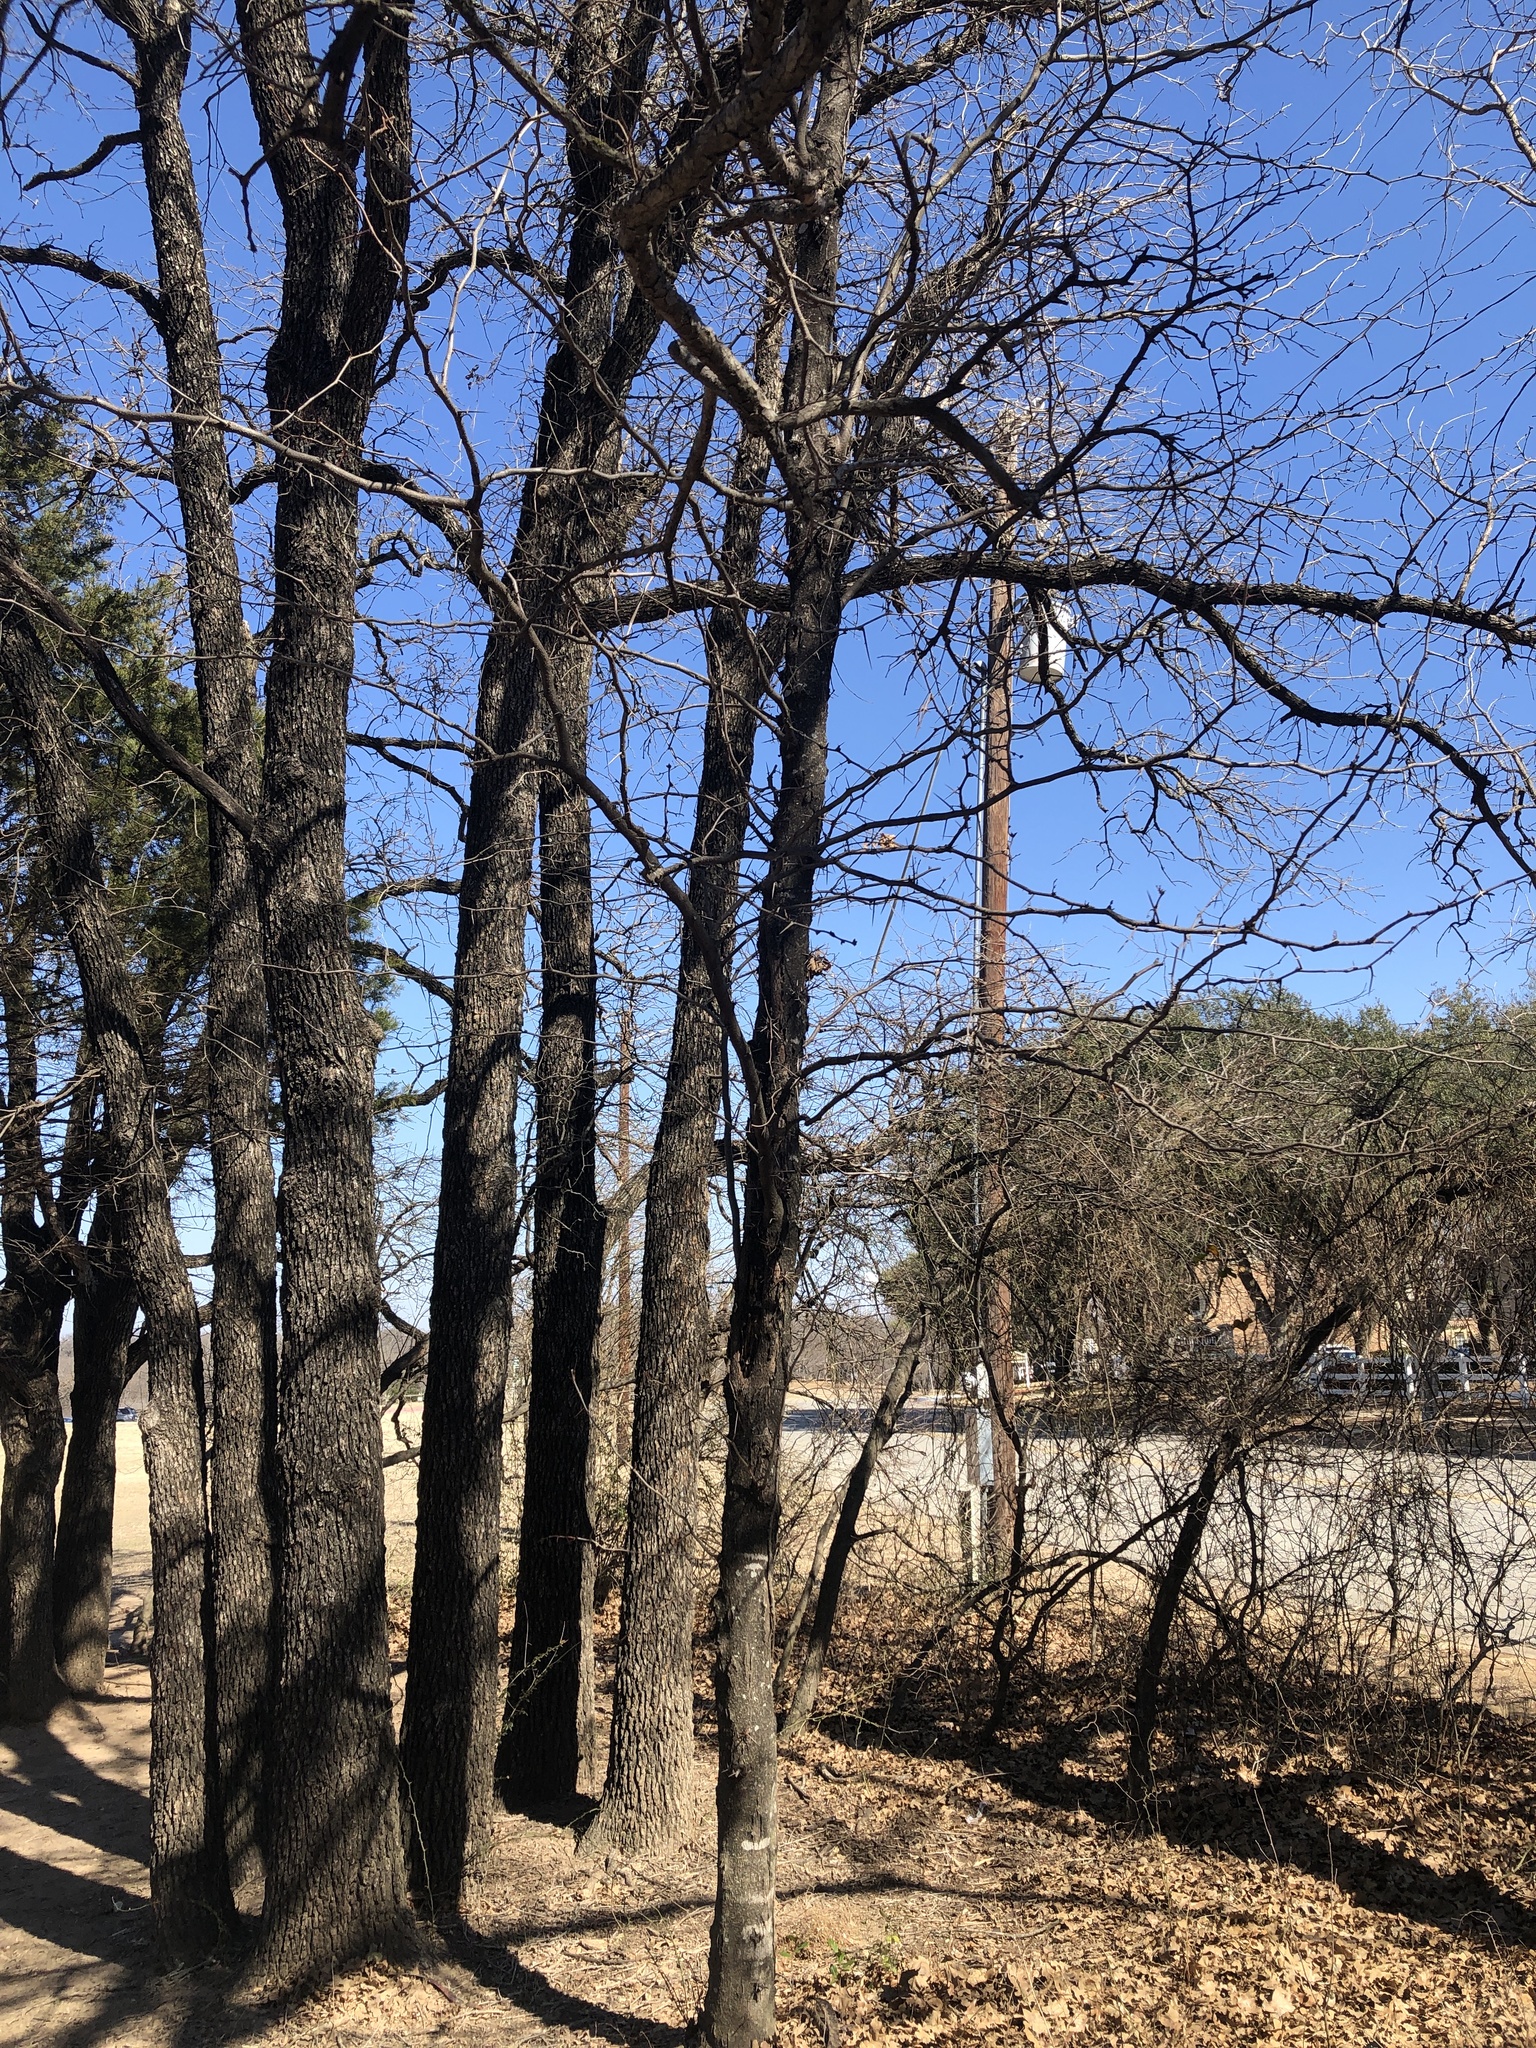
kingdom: Plantae
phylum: Tracheophyta
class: Magnoliopsida
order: Fabales
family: Fabaceae
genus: Gleditsia
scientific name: Gleditsia triacanthos
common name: Common honeylocust
